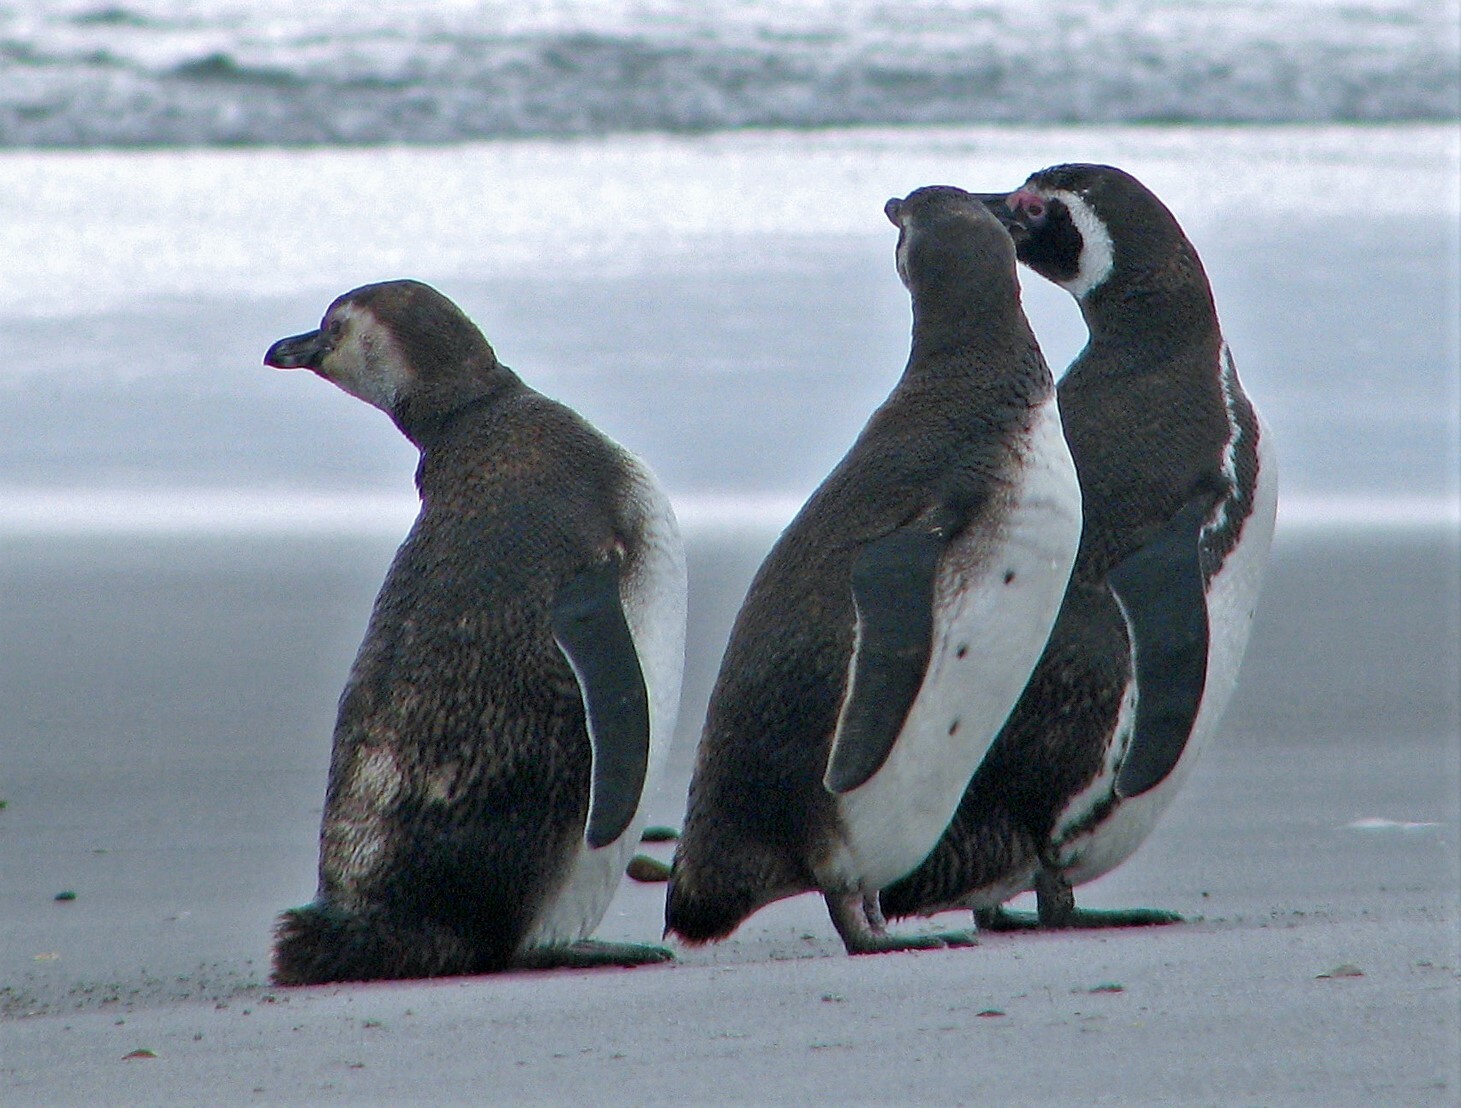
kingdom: Animalia
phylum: Chordata
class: Aves
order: Sphenisciformes
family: Spheniscidae
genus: Spheniscus
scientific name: Spheniscus magellanicus
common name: Magellanic penguin
